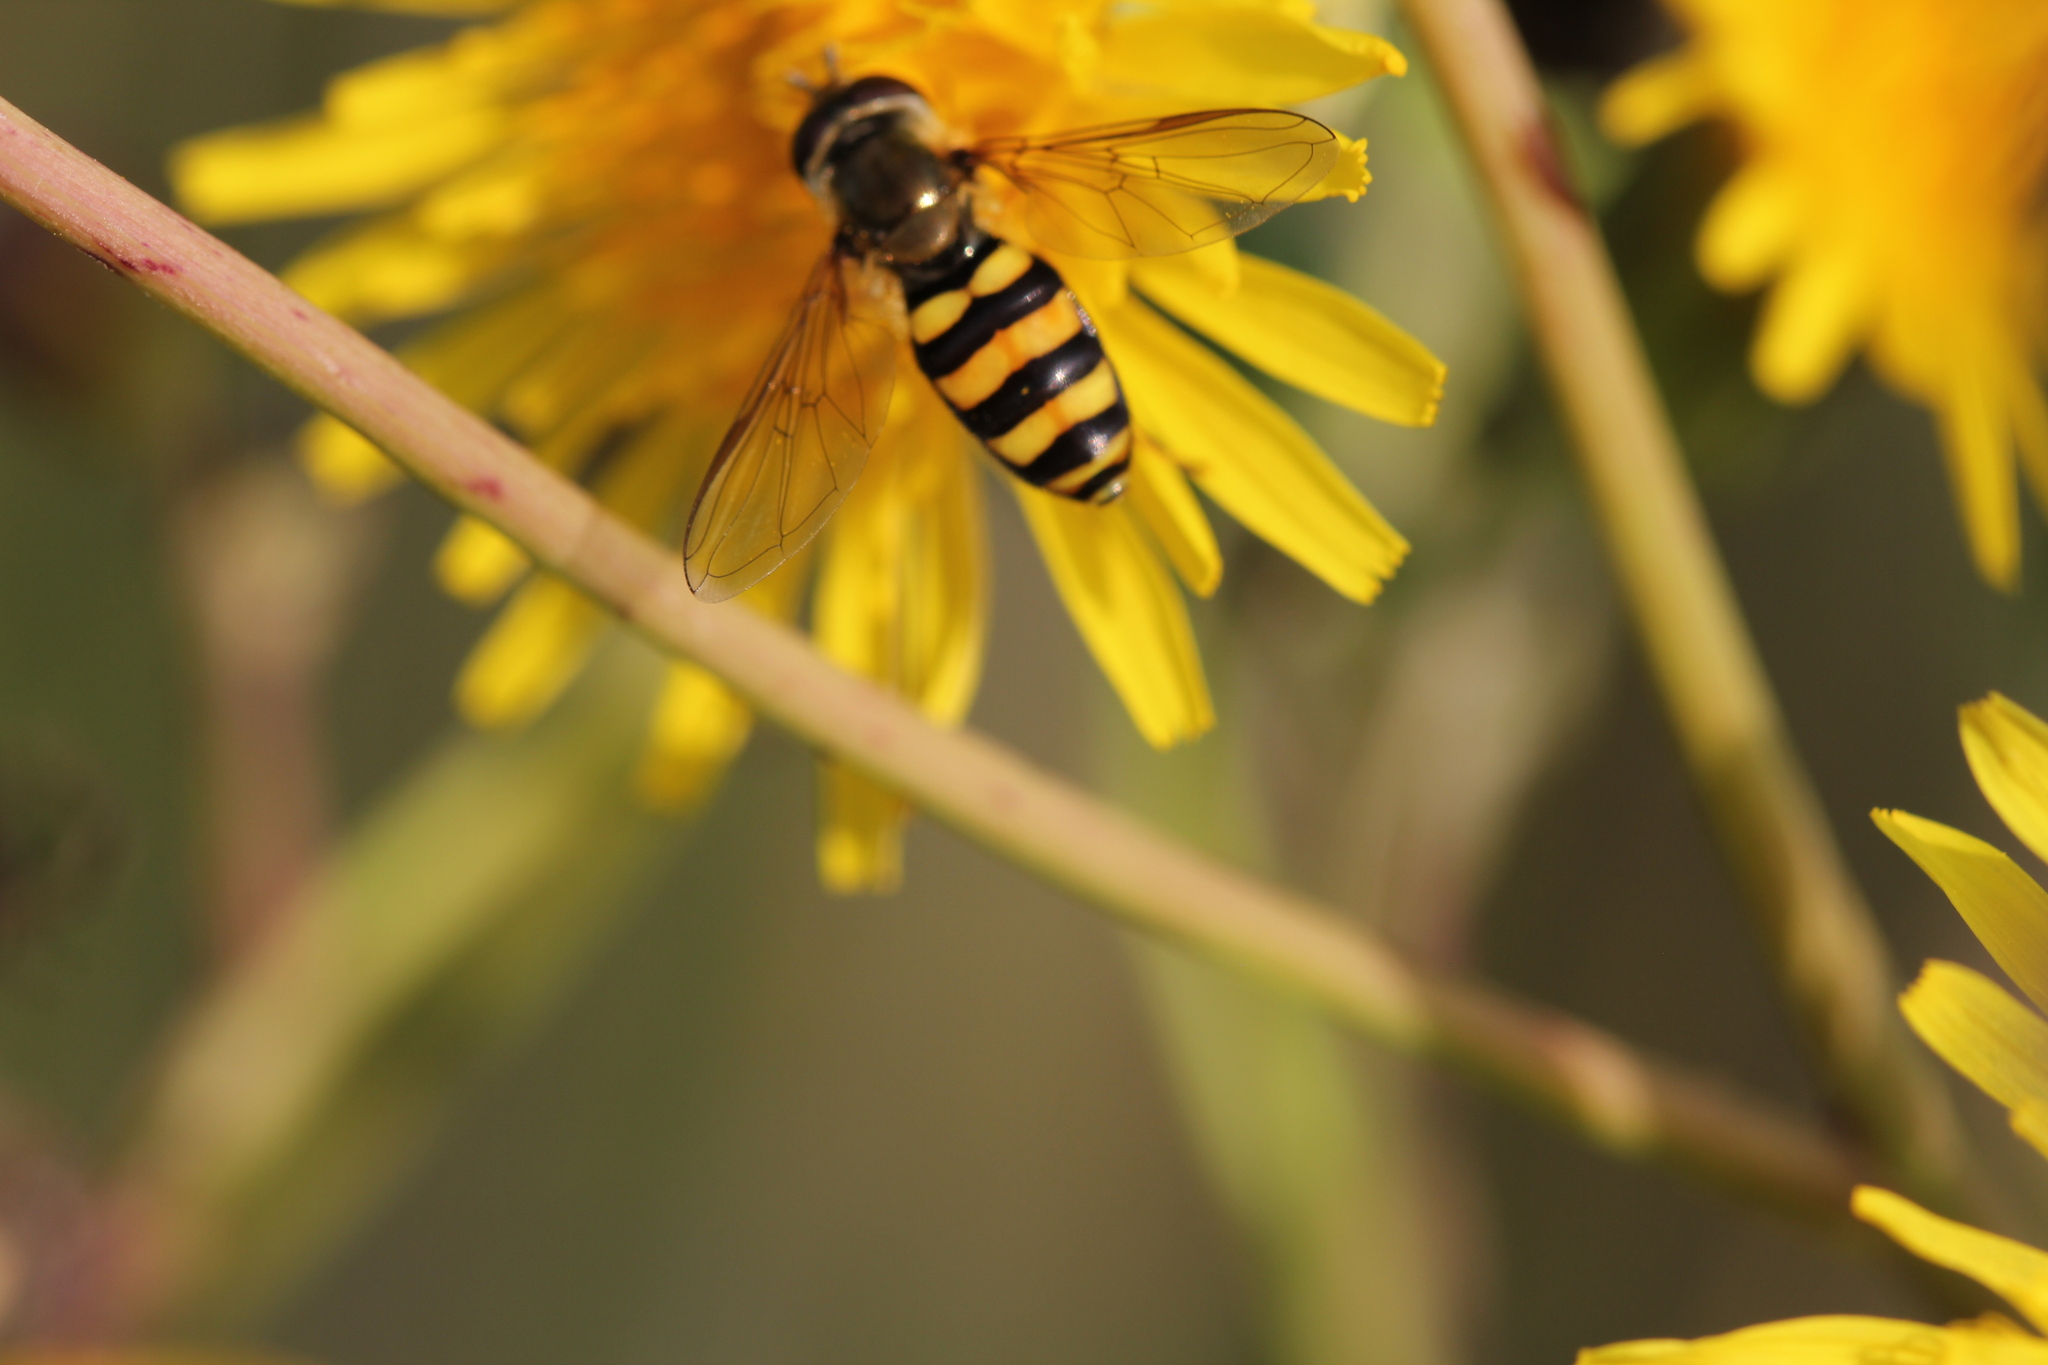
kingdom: Animalia
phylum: Arthropoda
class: Insecta
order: Diptera
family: Syrphidae
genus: Eupeodes
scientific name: Eupeodes
